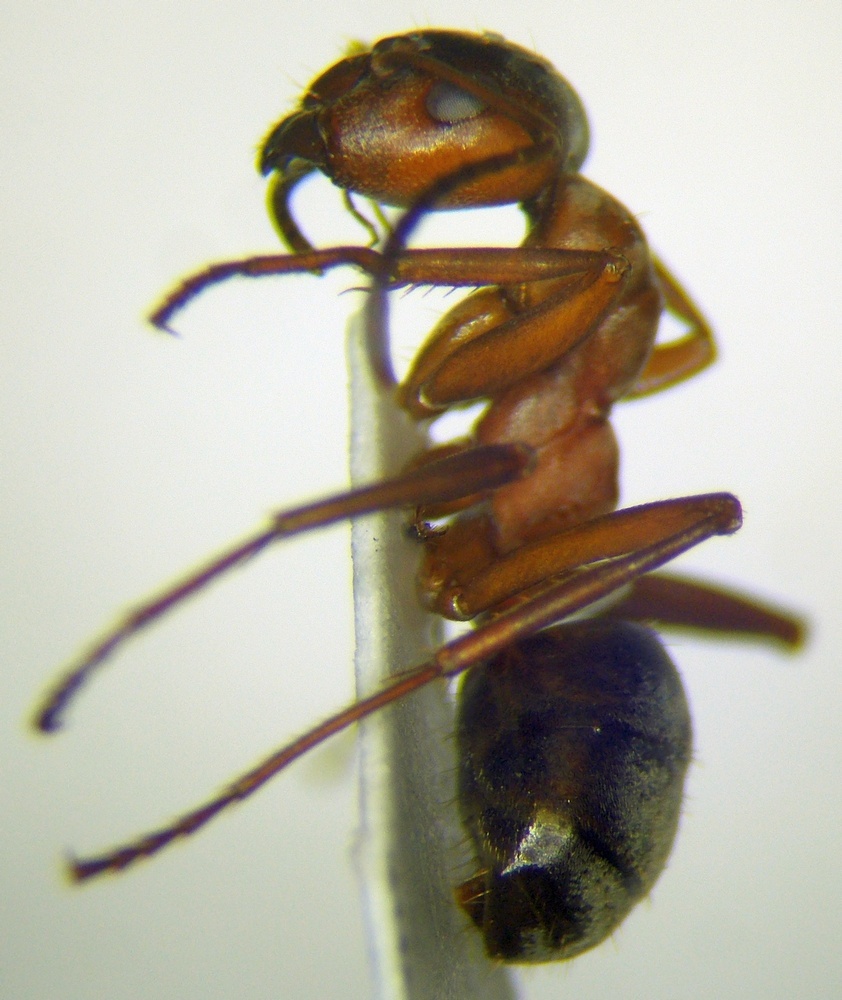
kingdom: Animalia
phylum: Arthropoda
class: Insecta
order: Hymenoptera
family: Formicidae
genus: Formica
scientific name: Formica sanguinea
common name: Blood-red ant
